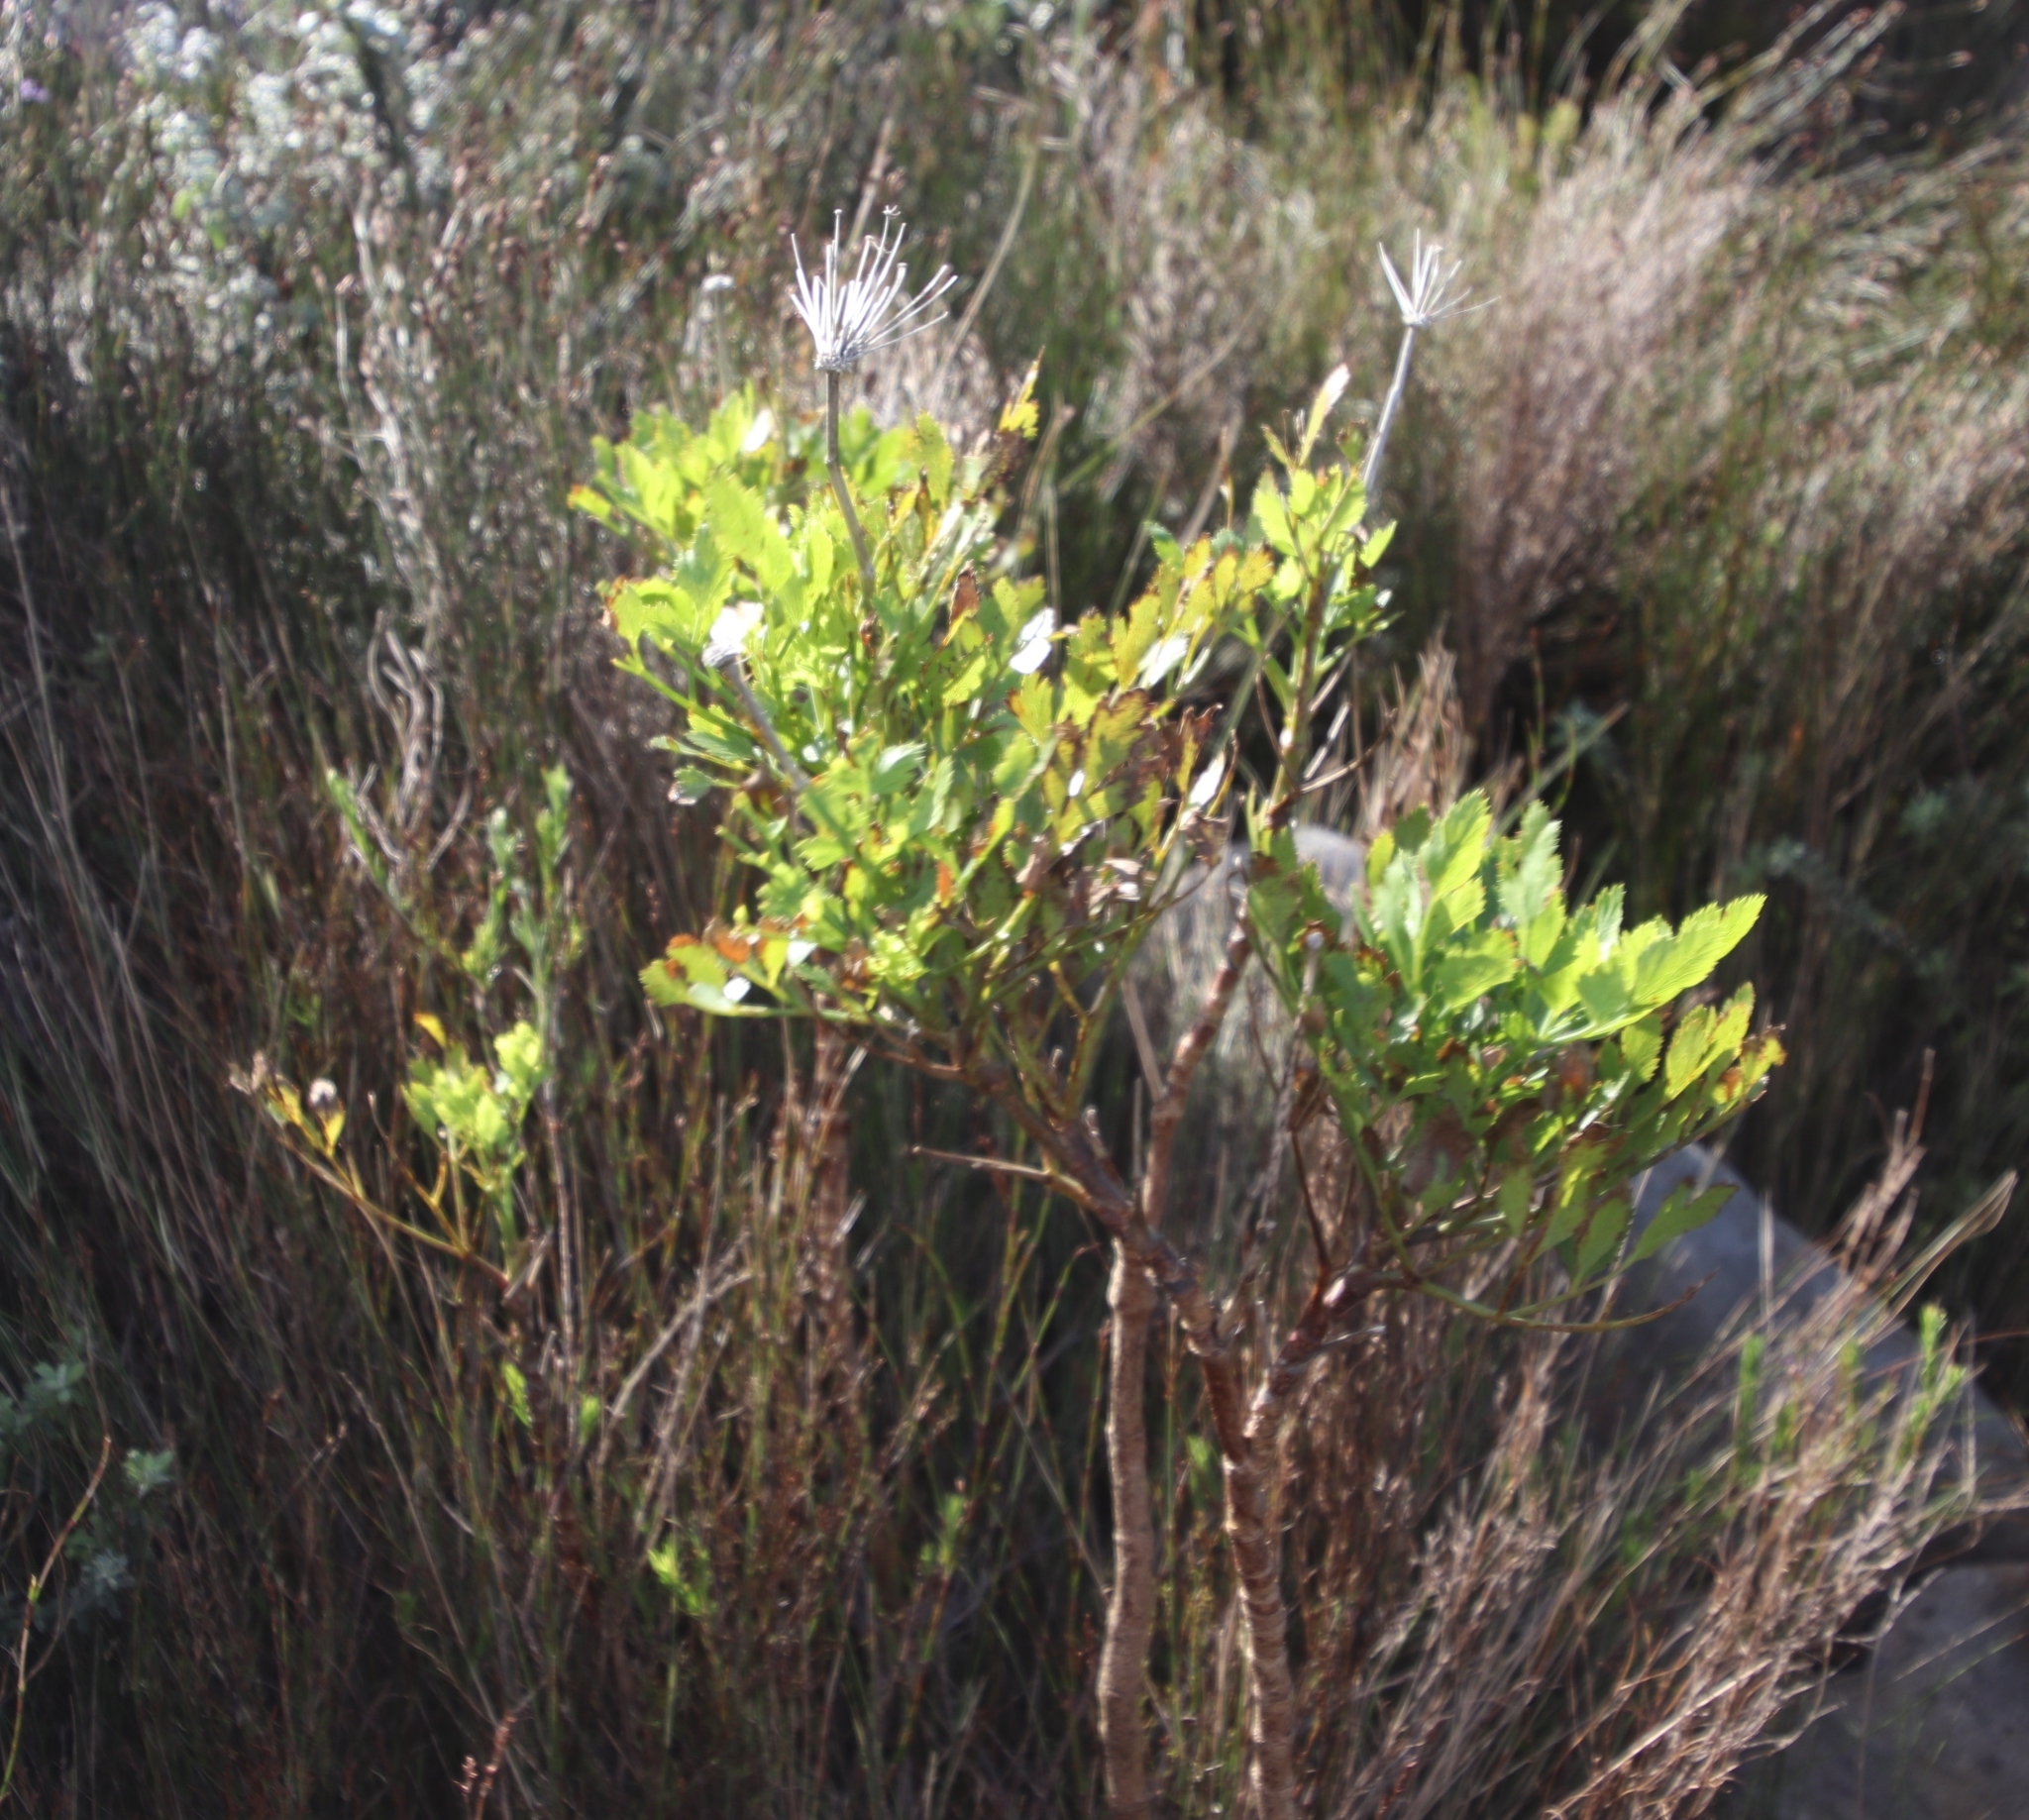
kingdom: Plantae
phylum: Tracheophyta
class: Magnoliopsida
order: Apiales
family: Apiaceae
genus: Notobubon
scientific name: Notobubon galbanum
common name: Blisterbush
